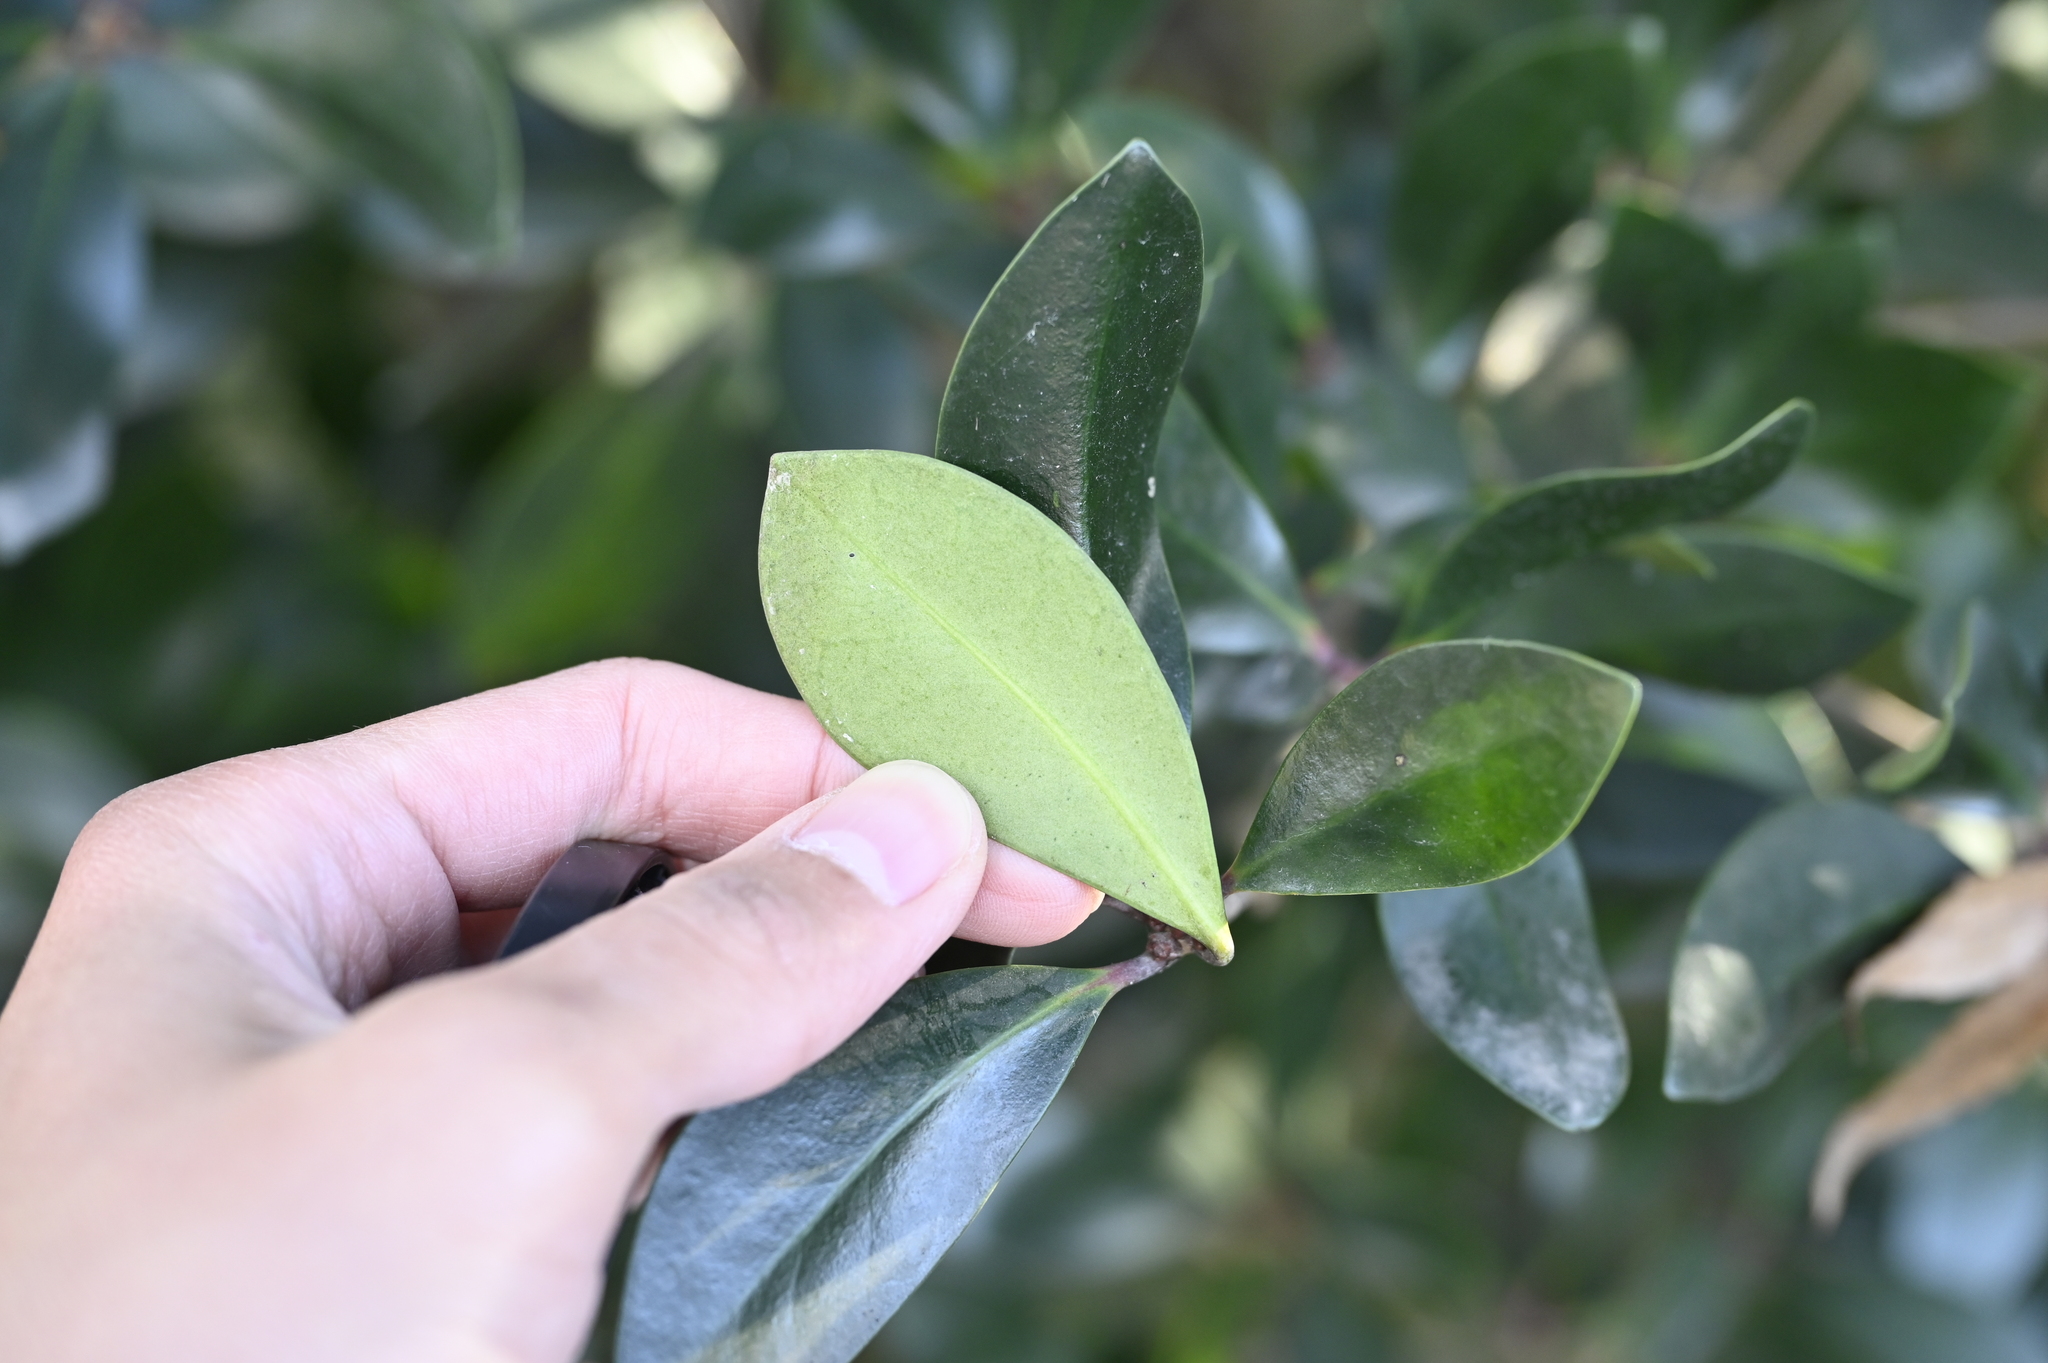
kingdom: Plantae
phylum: Tracheophyta
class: Magnoliopsida
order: Ericales
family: Pentaphylacaceae
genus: Ternstroemia
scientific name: Ternstroemia gymnanthera
